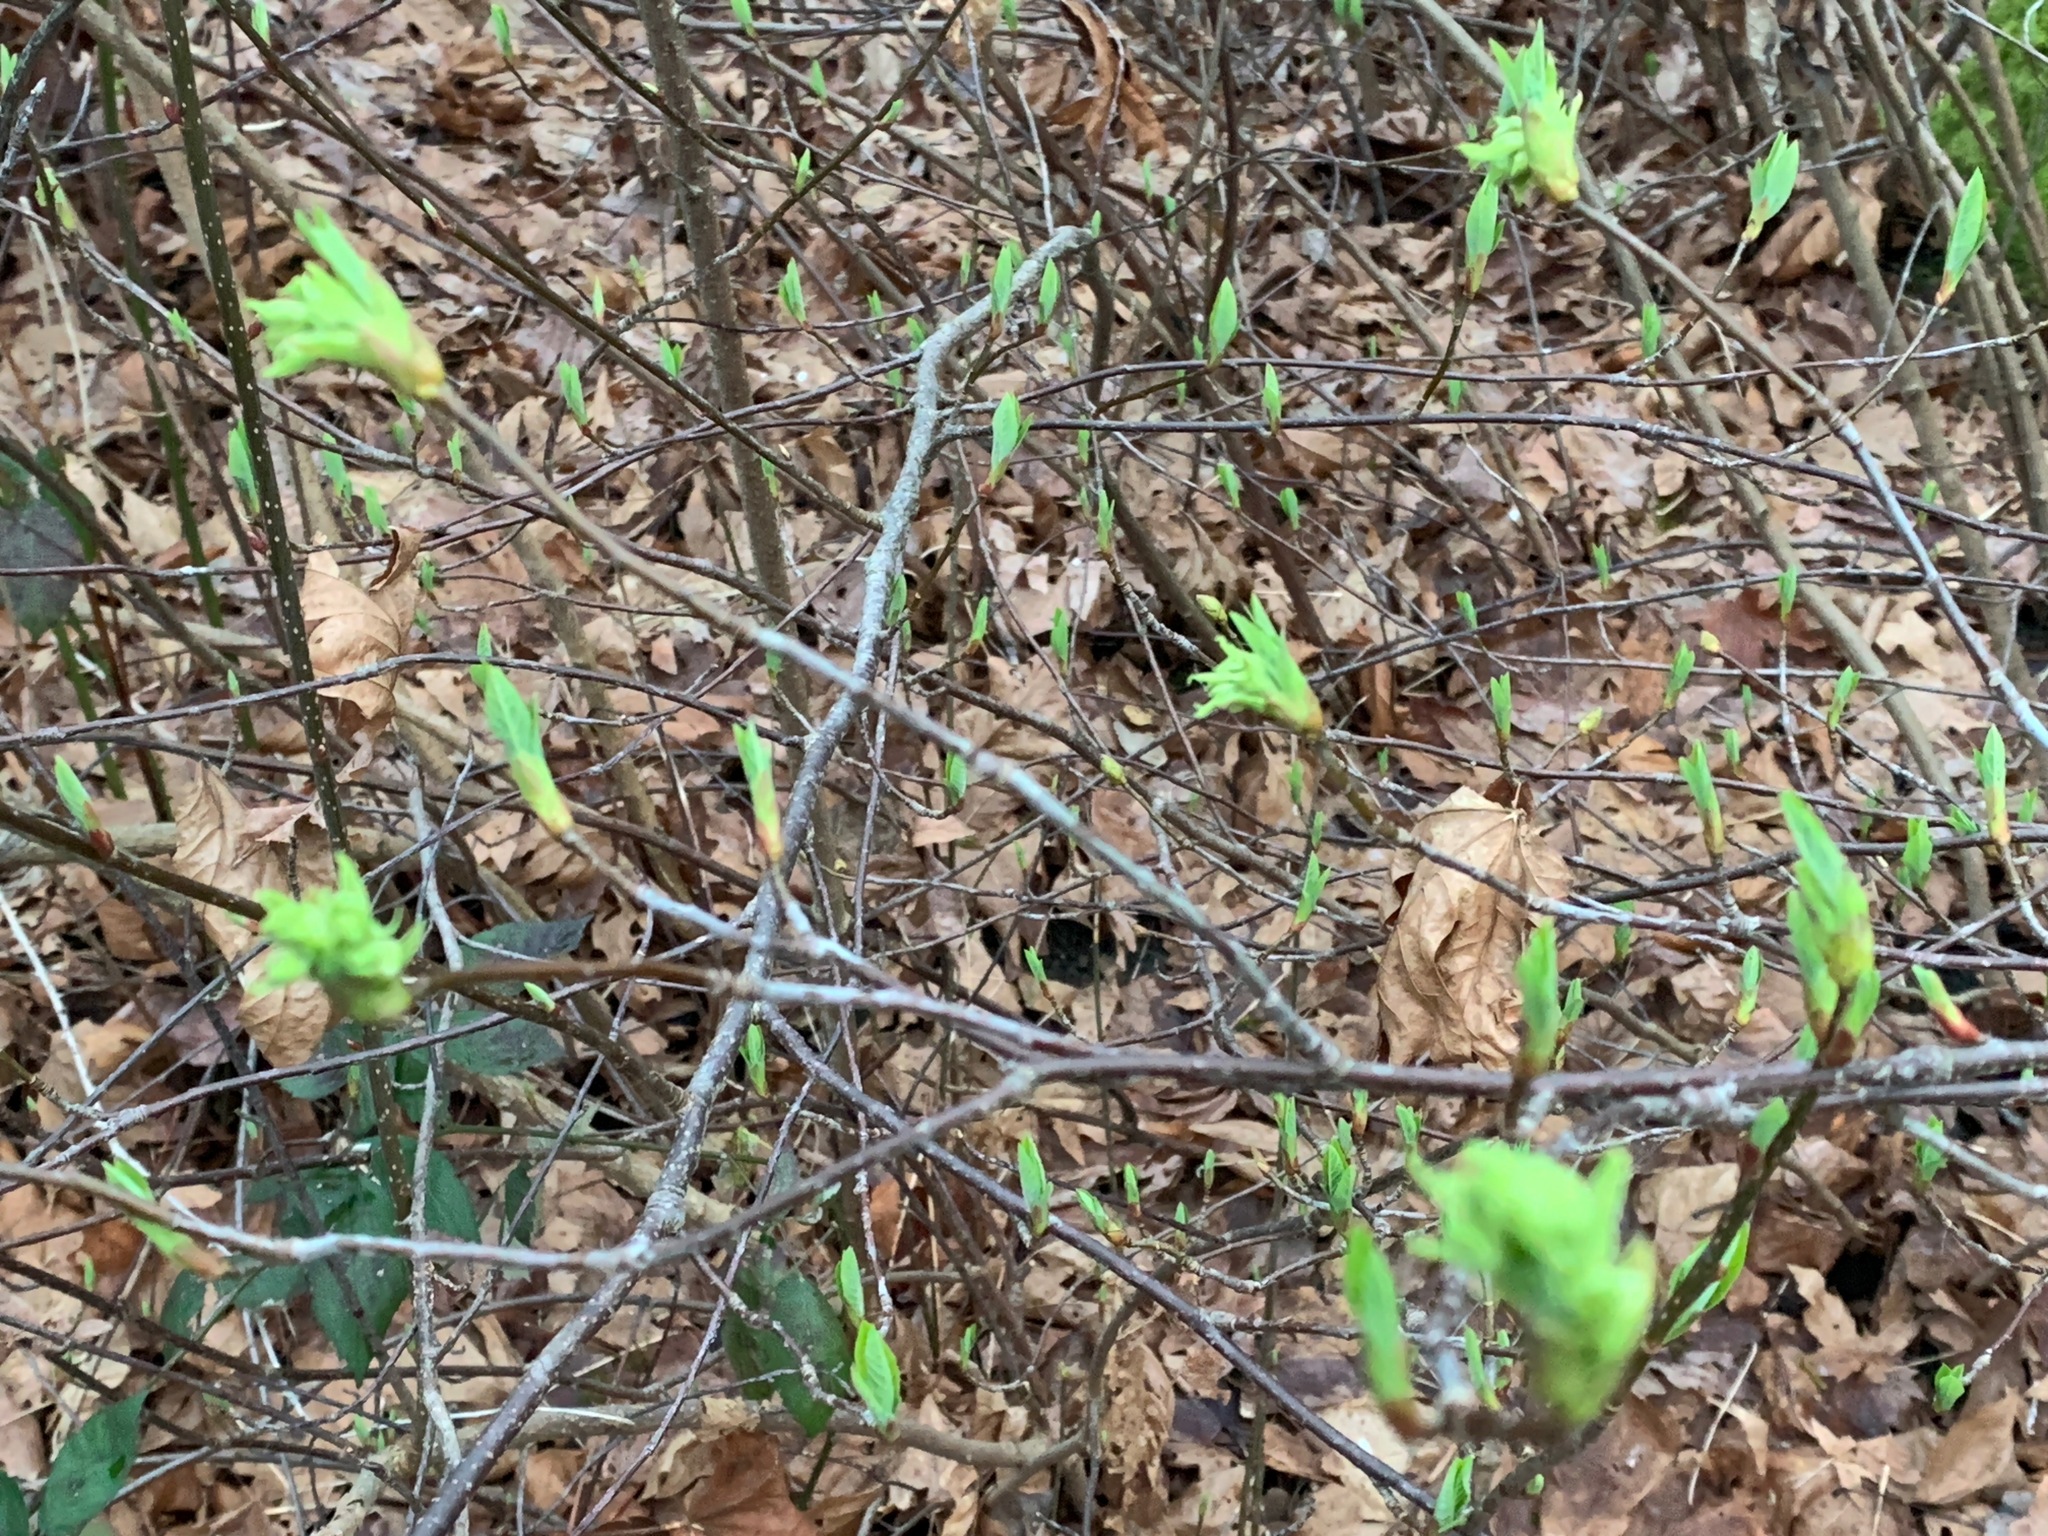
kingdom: Plantae
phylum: Tracheophyta
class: Magnoliopsida
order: Rosales
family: Rosaceae
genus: Oemleria
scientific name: Oemleria cerasiformis
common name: Osoberry
